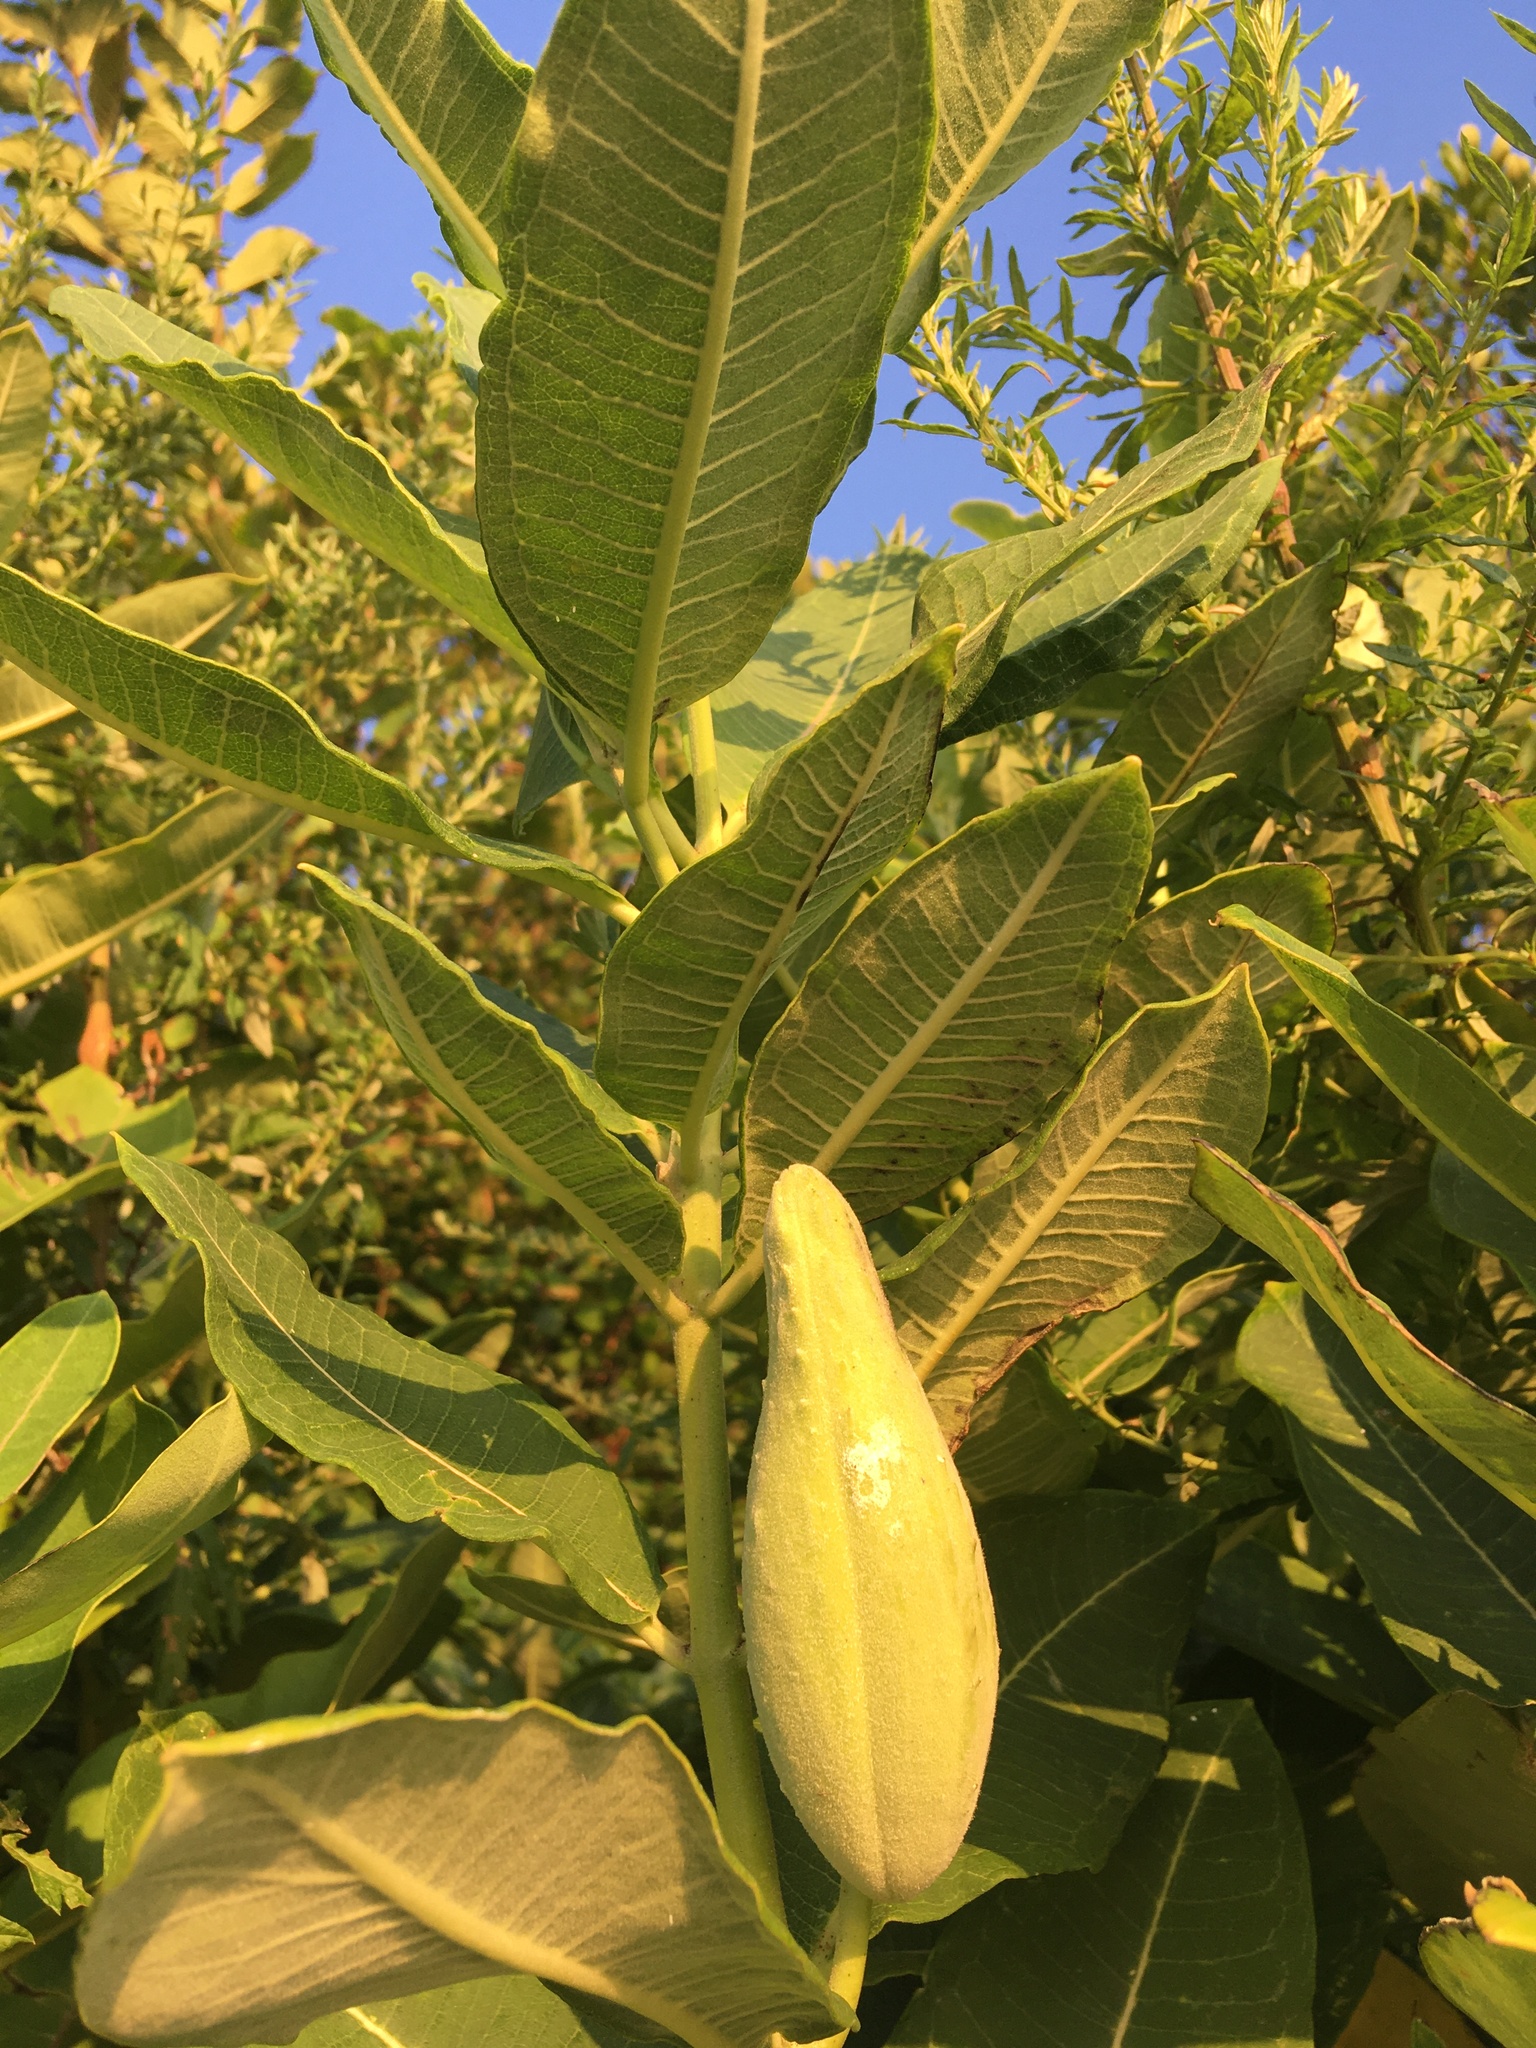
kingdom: Plantae
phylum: Tracheophyta
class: Magnoliopsida
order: Gentianales
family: Apocynaceae
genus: Asclepias
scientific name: Asclepias syriaca
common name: Common milkweed
